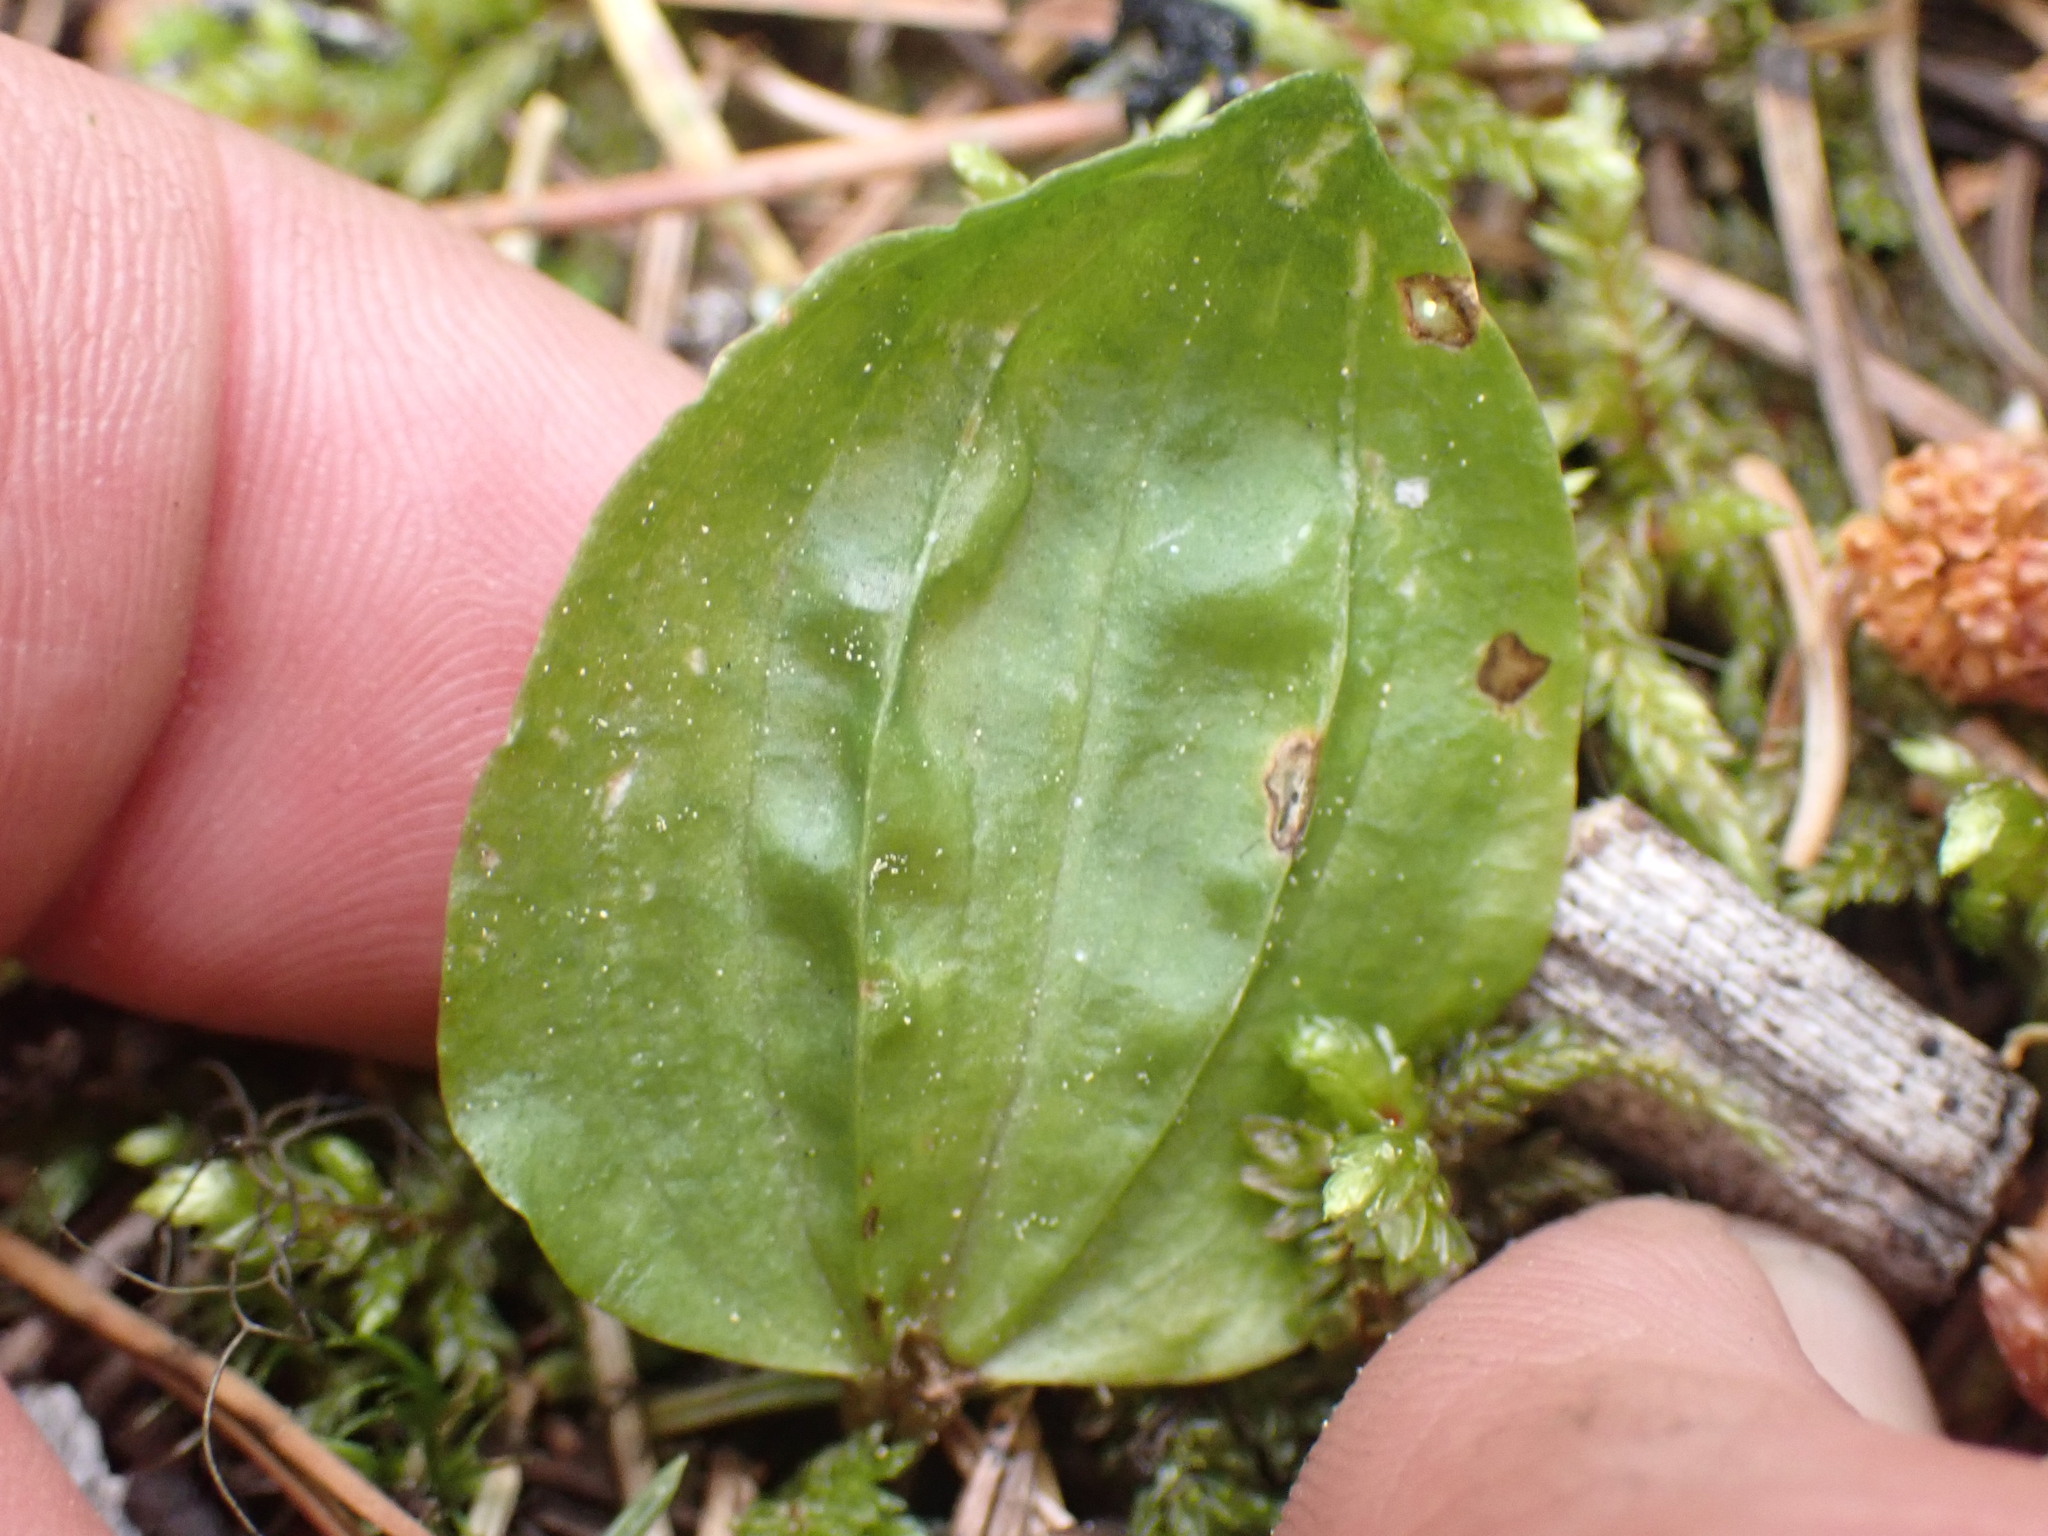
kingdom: Plantae
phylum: Tracheophyta
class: Liliopsida
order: Asparagales
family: Orchidaceae
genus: Calypso
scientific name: Calypso bulbosa
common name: Calypso
